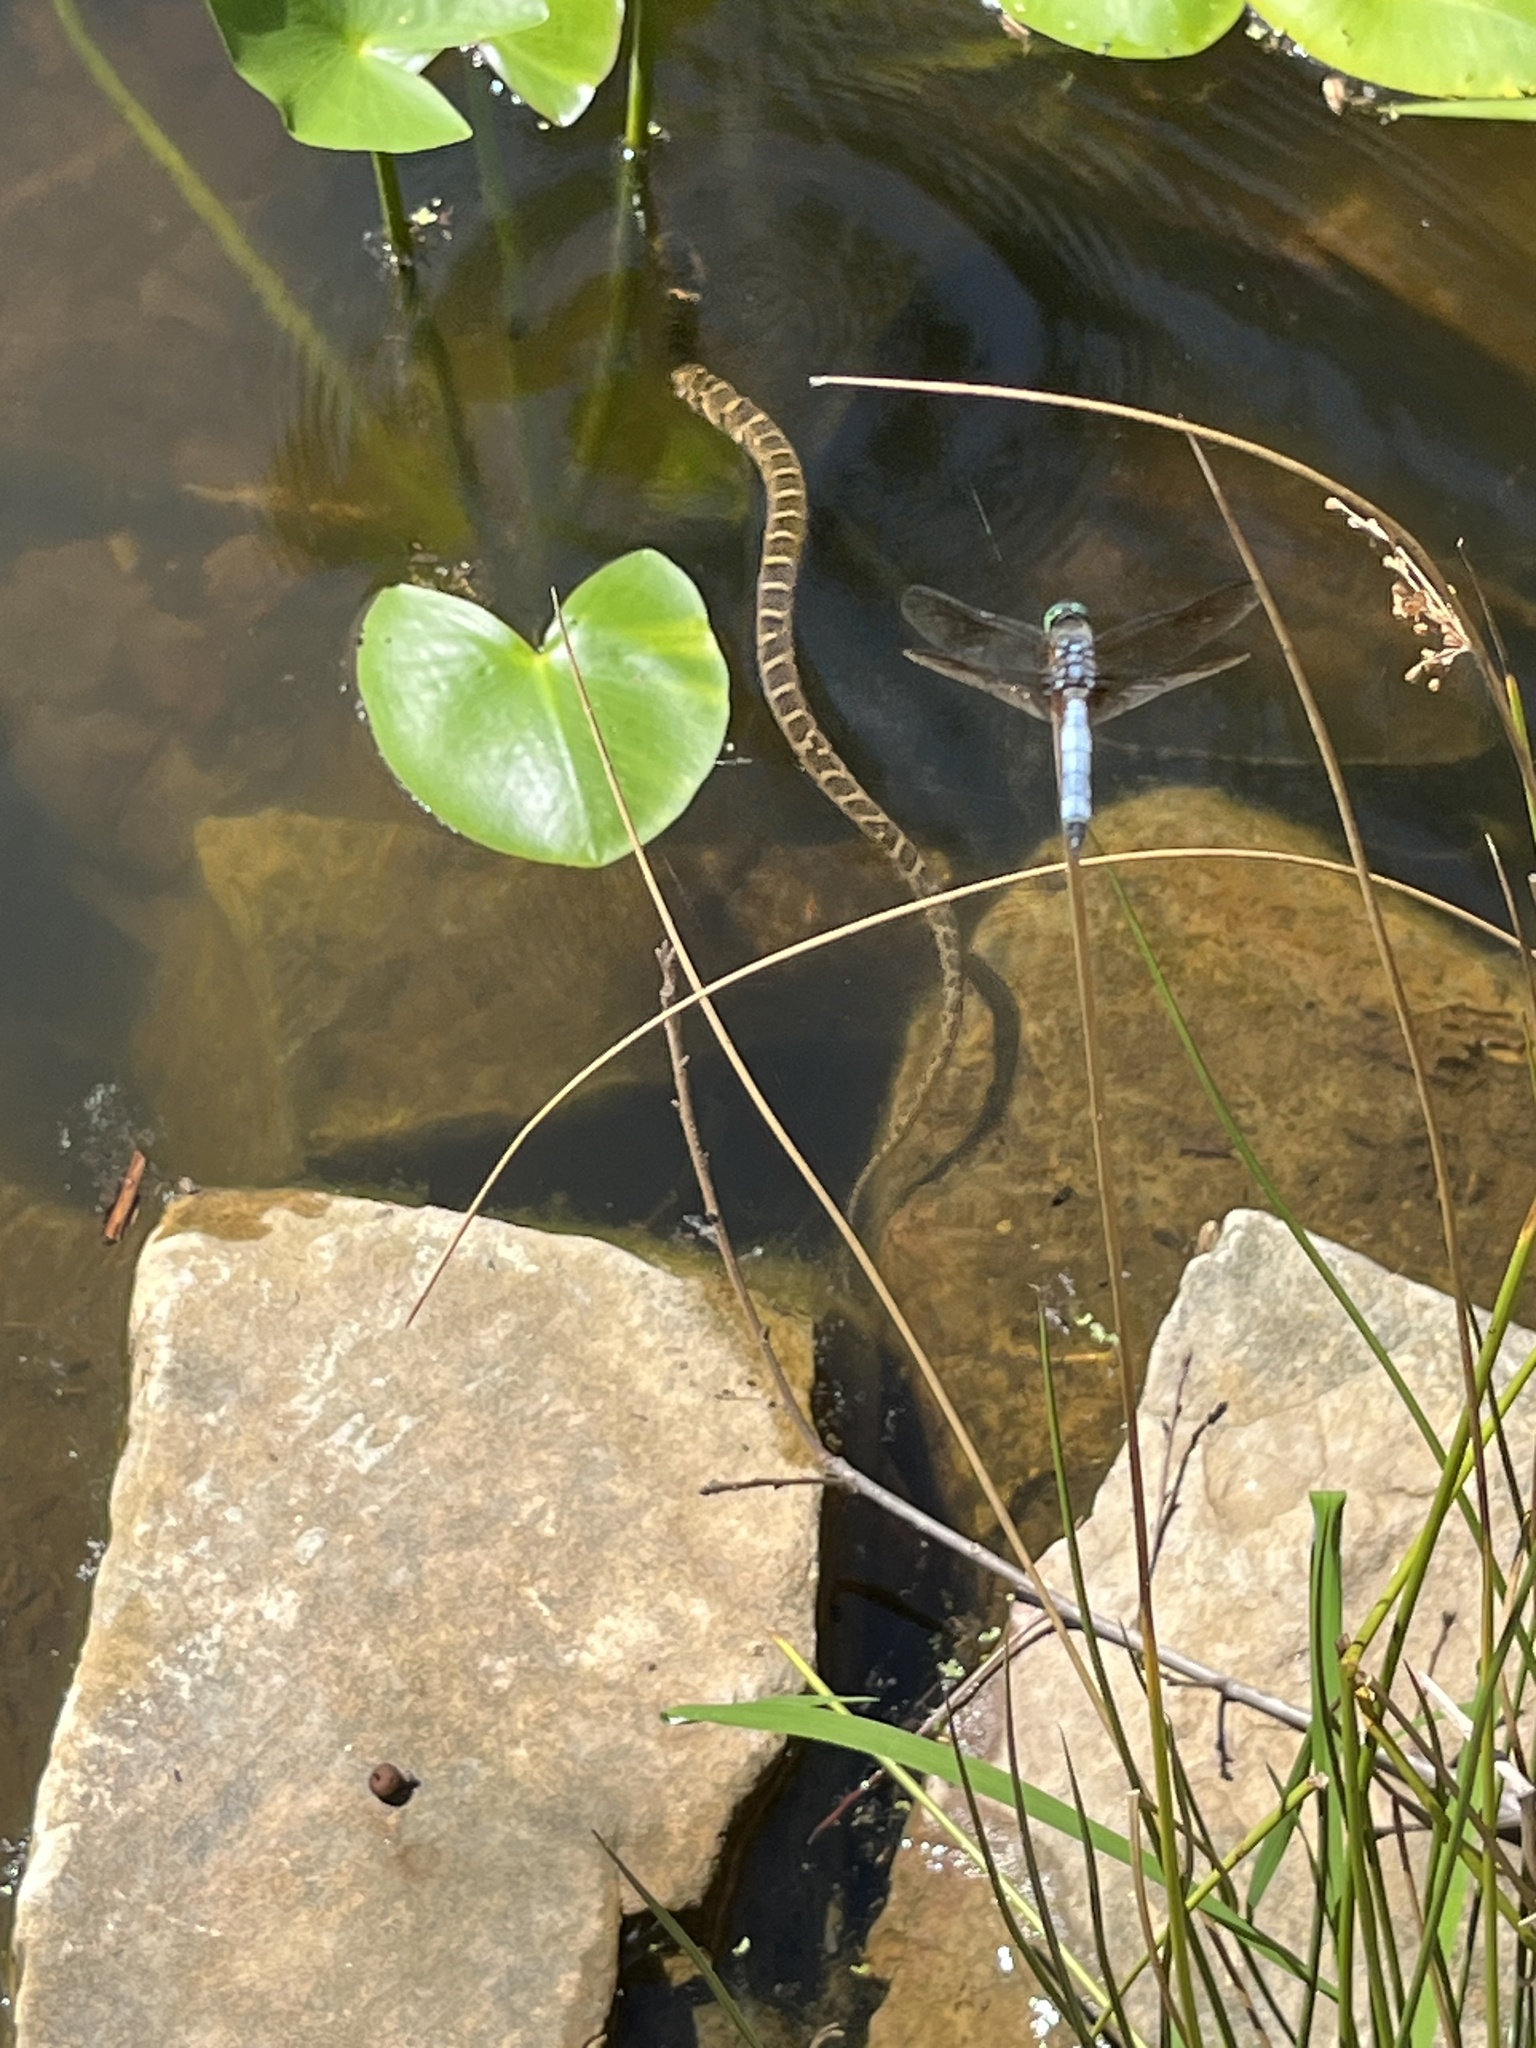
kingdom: Animalia
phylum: Arthropoda
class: Insecta
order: Odonata
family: Libellulidae
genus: Pachydiplax
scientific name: Pachydiplax longipennis
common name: Blue dasher
